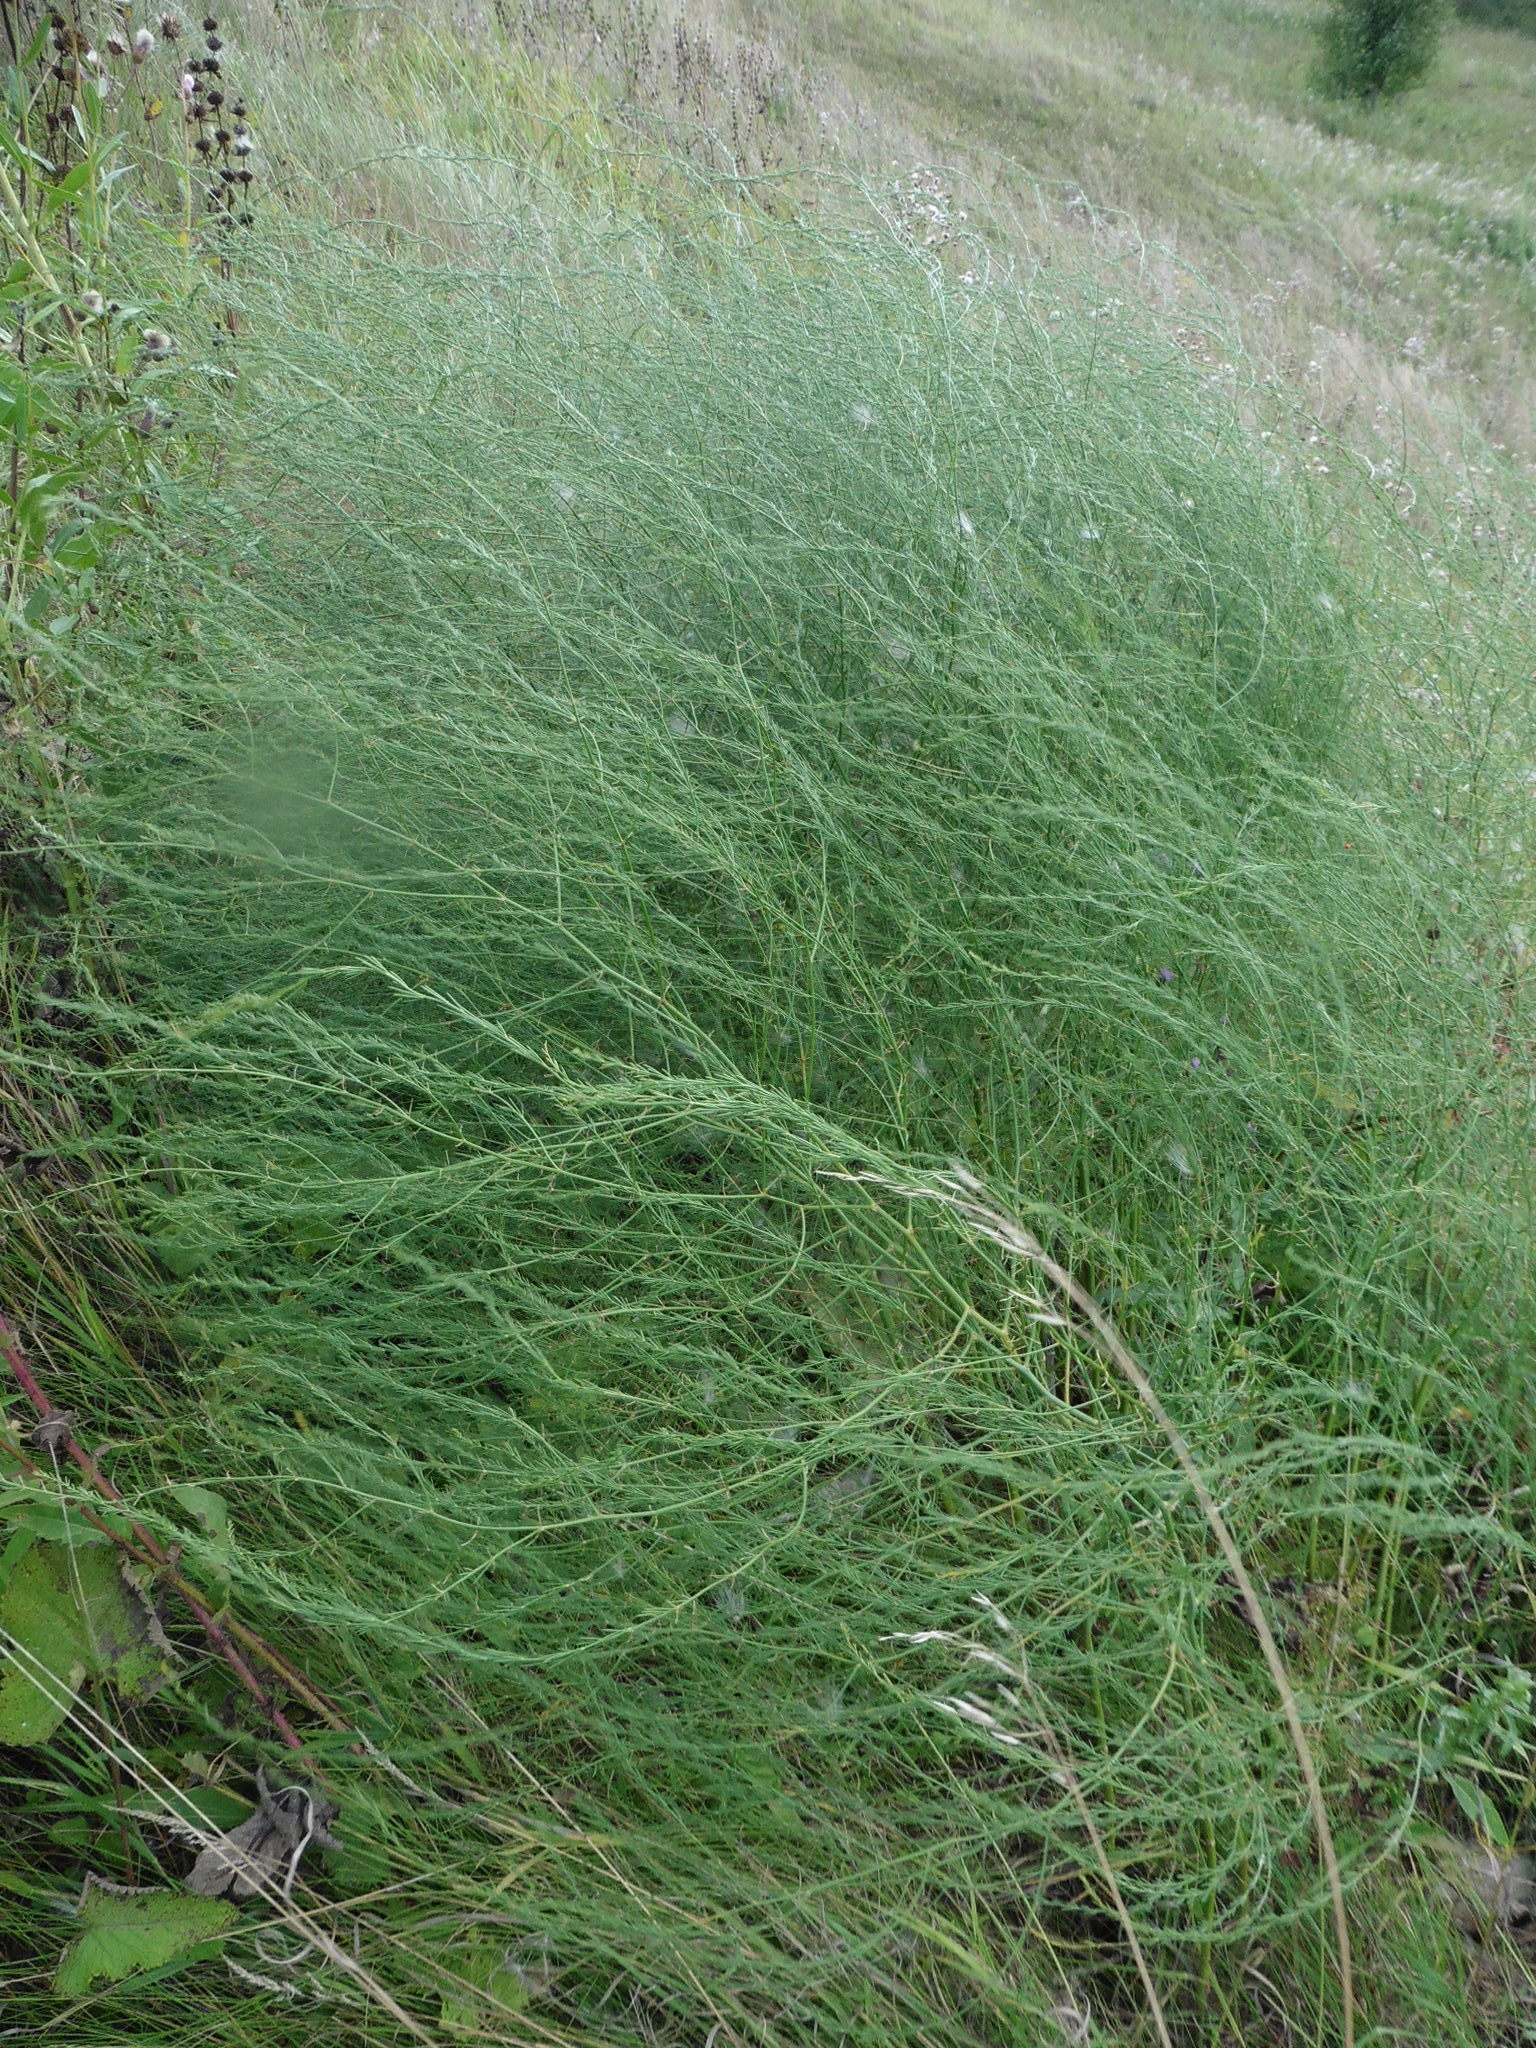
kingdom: Plantae
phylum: Tracheophyta
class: Liliopsida
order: Asparagales
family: Asparagaceae
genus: Asparagus
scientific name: Asparagus officinalis
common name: Garden asparagus
